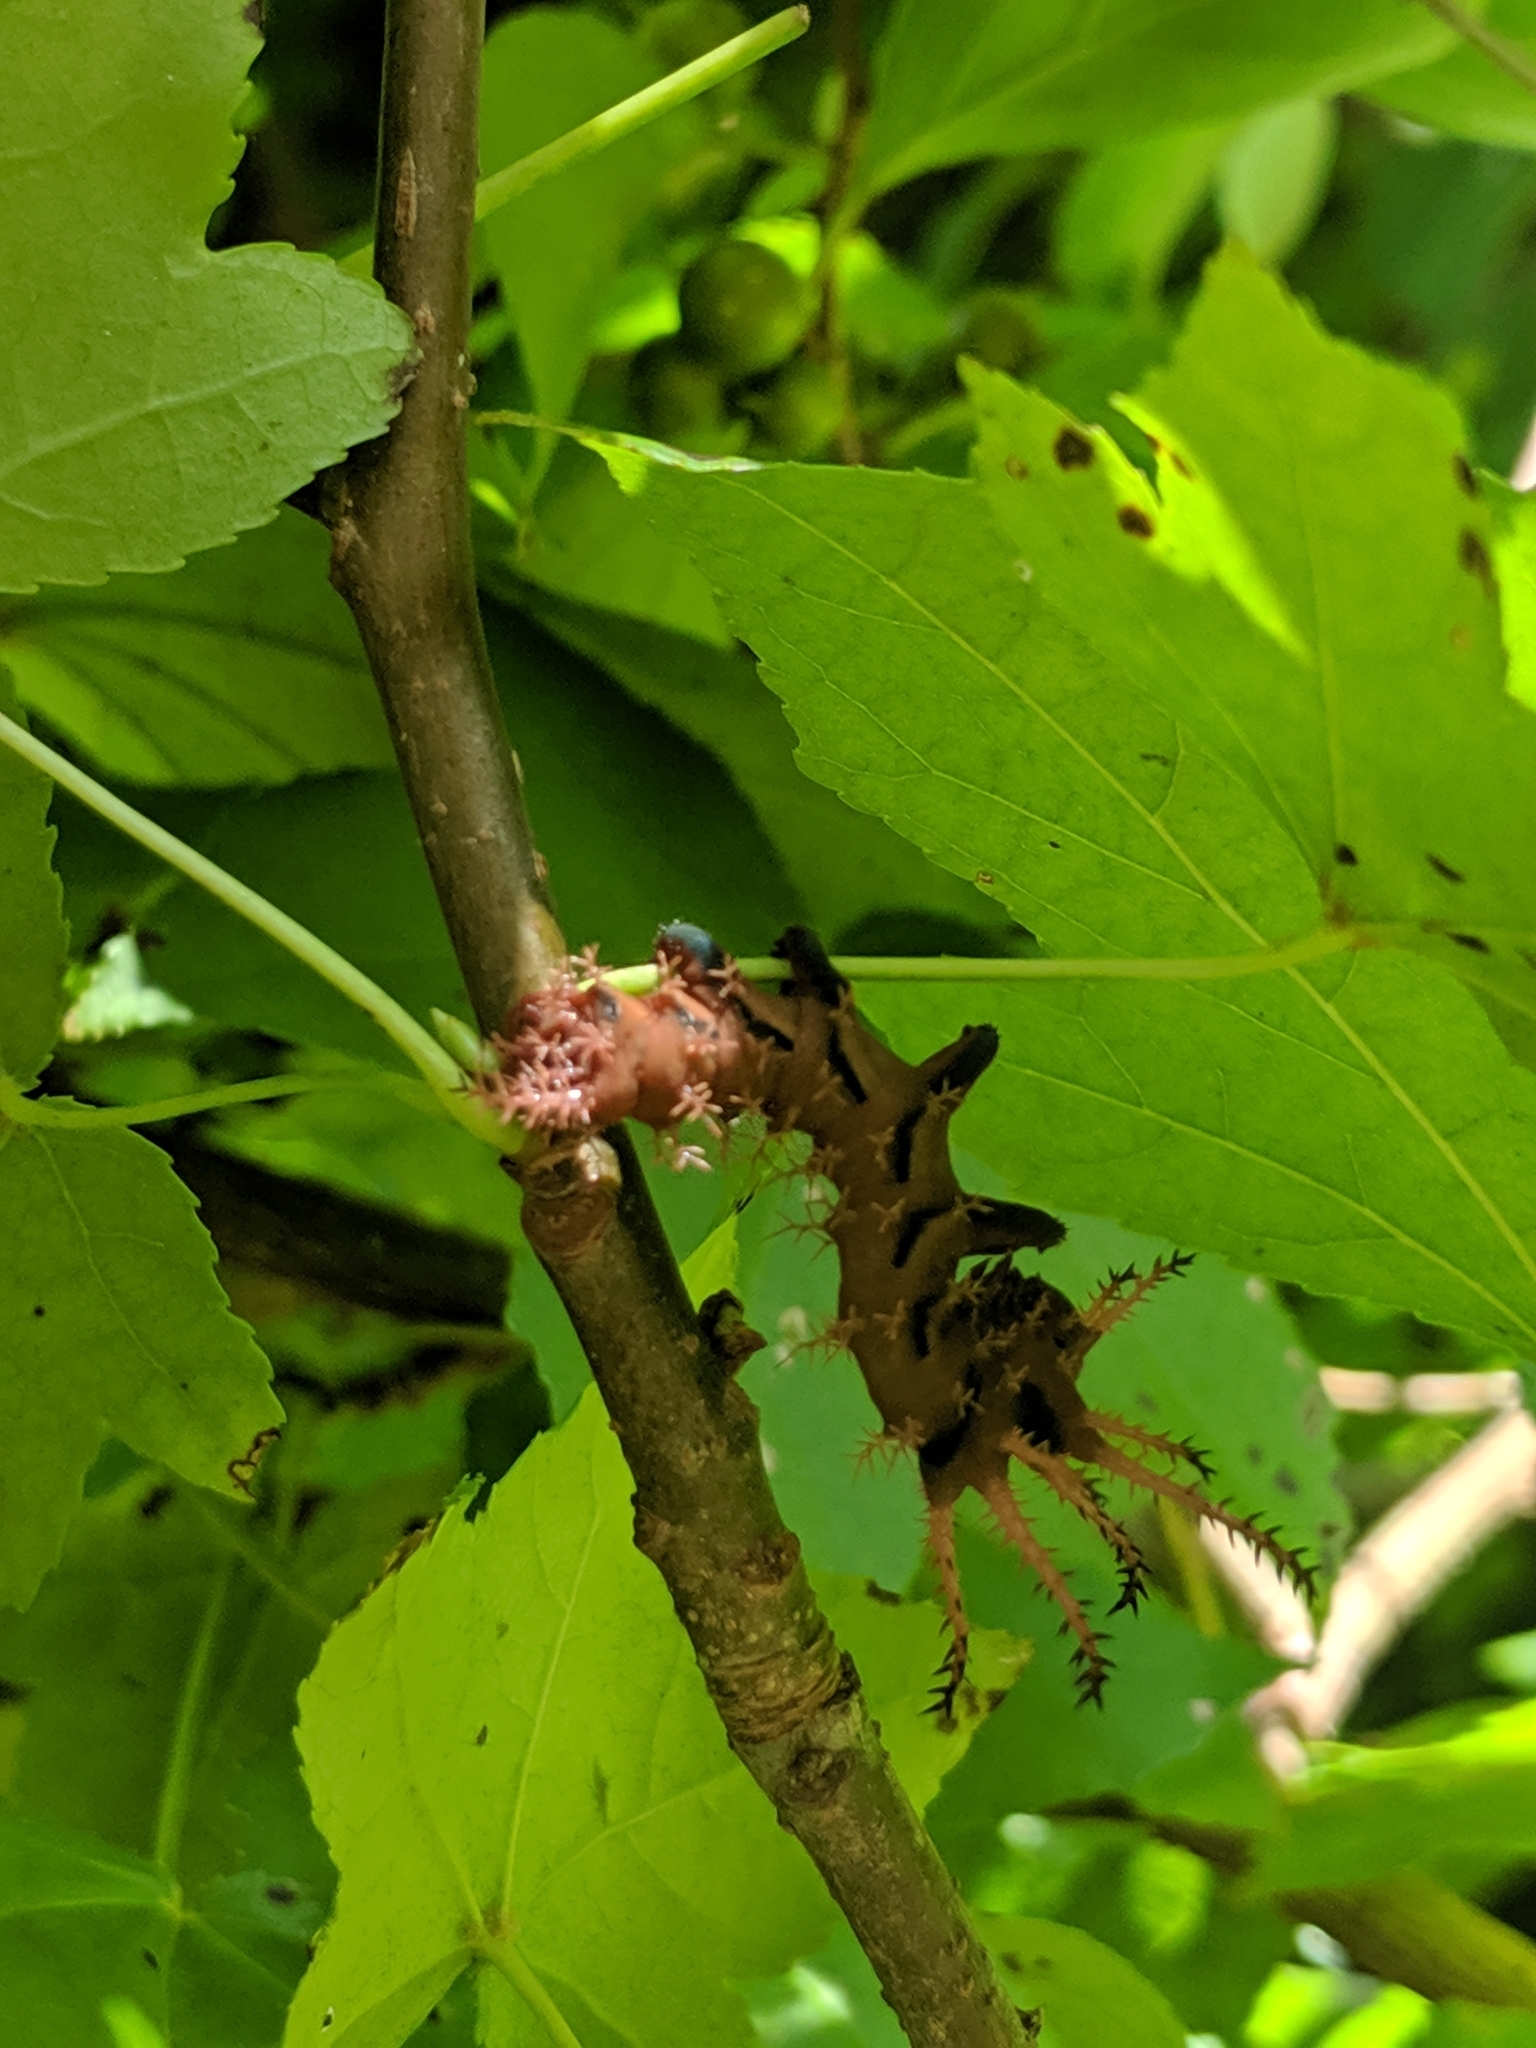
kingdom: Animalia
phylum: Arthropoda
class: Insecta
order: Lepidoptera
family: Saturniidae
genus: Citheronia
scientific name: Citheronia regalis
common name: Hickory horned devil
